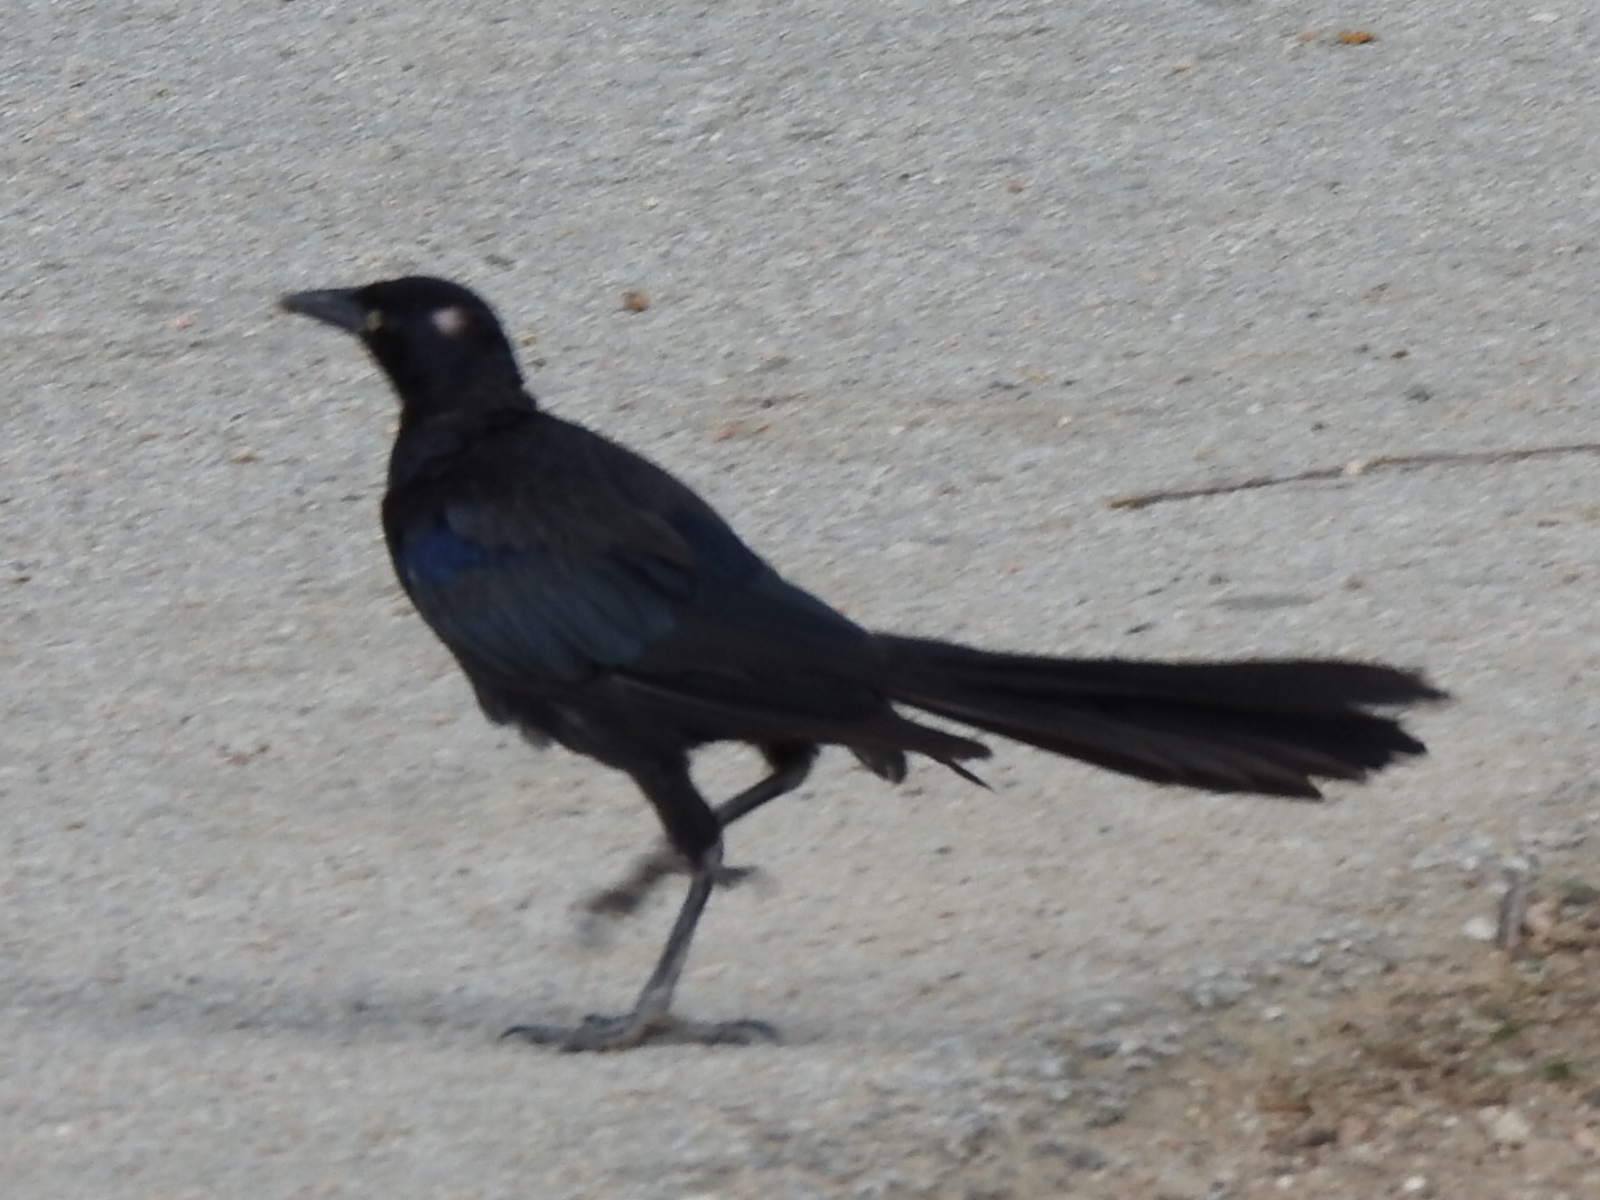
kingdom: Animalia
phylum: Chordata
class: Aves
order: Passeriformes
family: Icteridae
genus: Quiscalus
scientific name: Quiscalus mexicanus
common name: Great-tailed grackle
